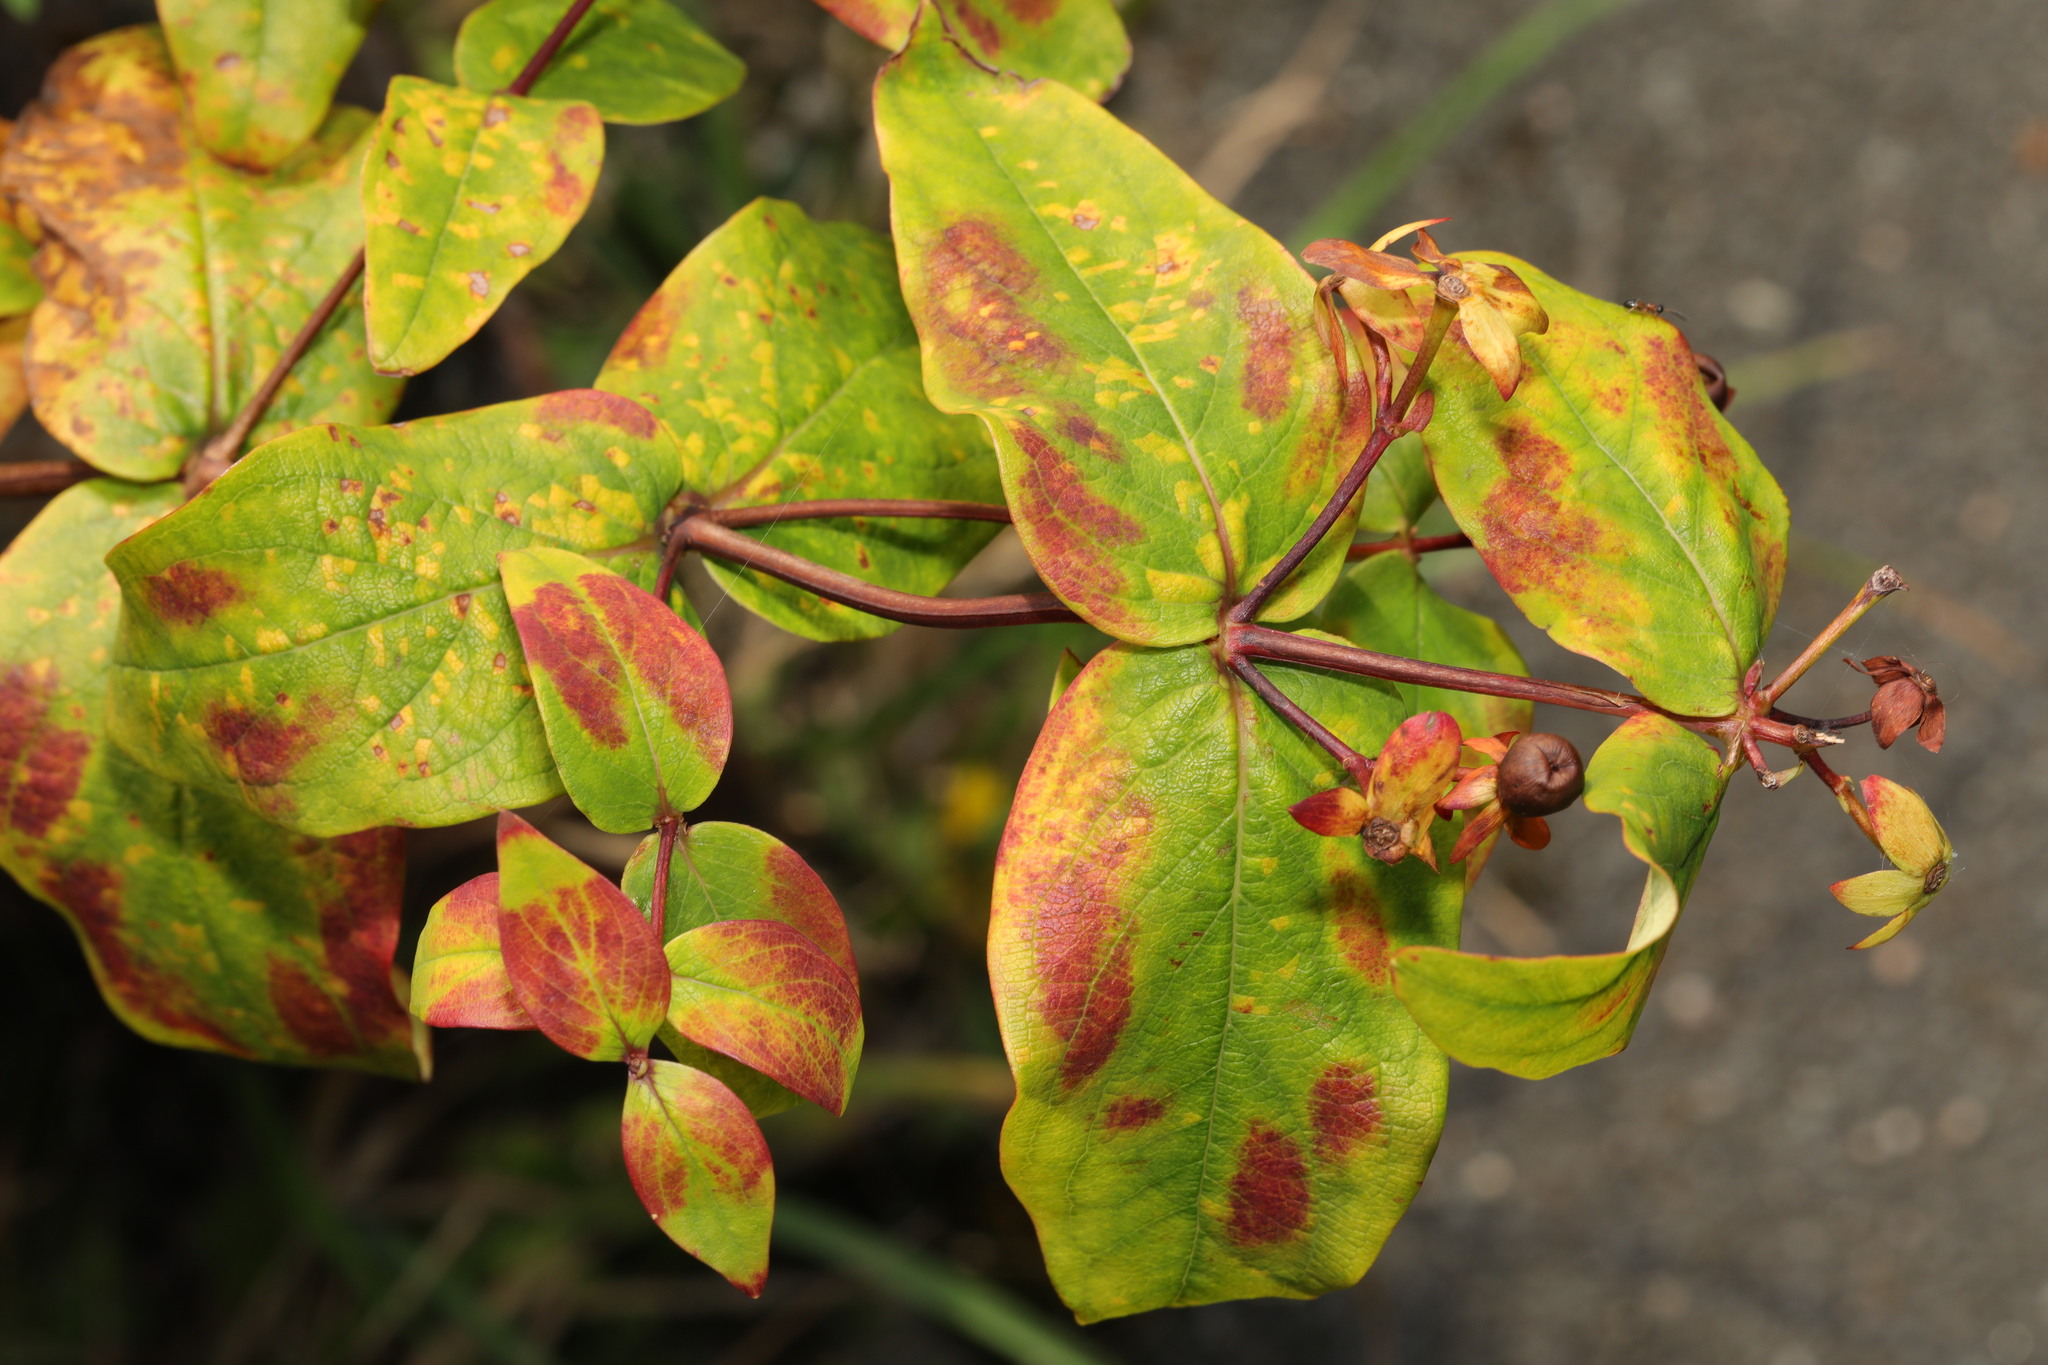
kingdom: Plantae
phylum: Tracheophyta
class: Magnoliopsida
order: Malpighiales
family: Hypericaceae
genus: Hypericum
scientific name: Hypericum androsaemum
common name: Sweet-amber
